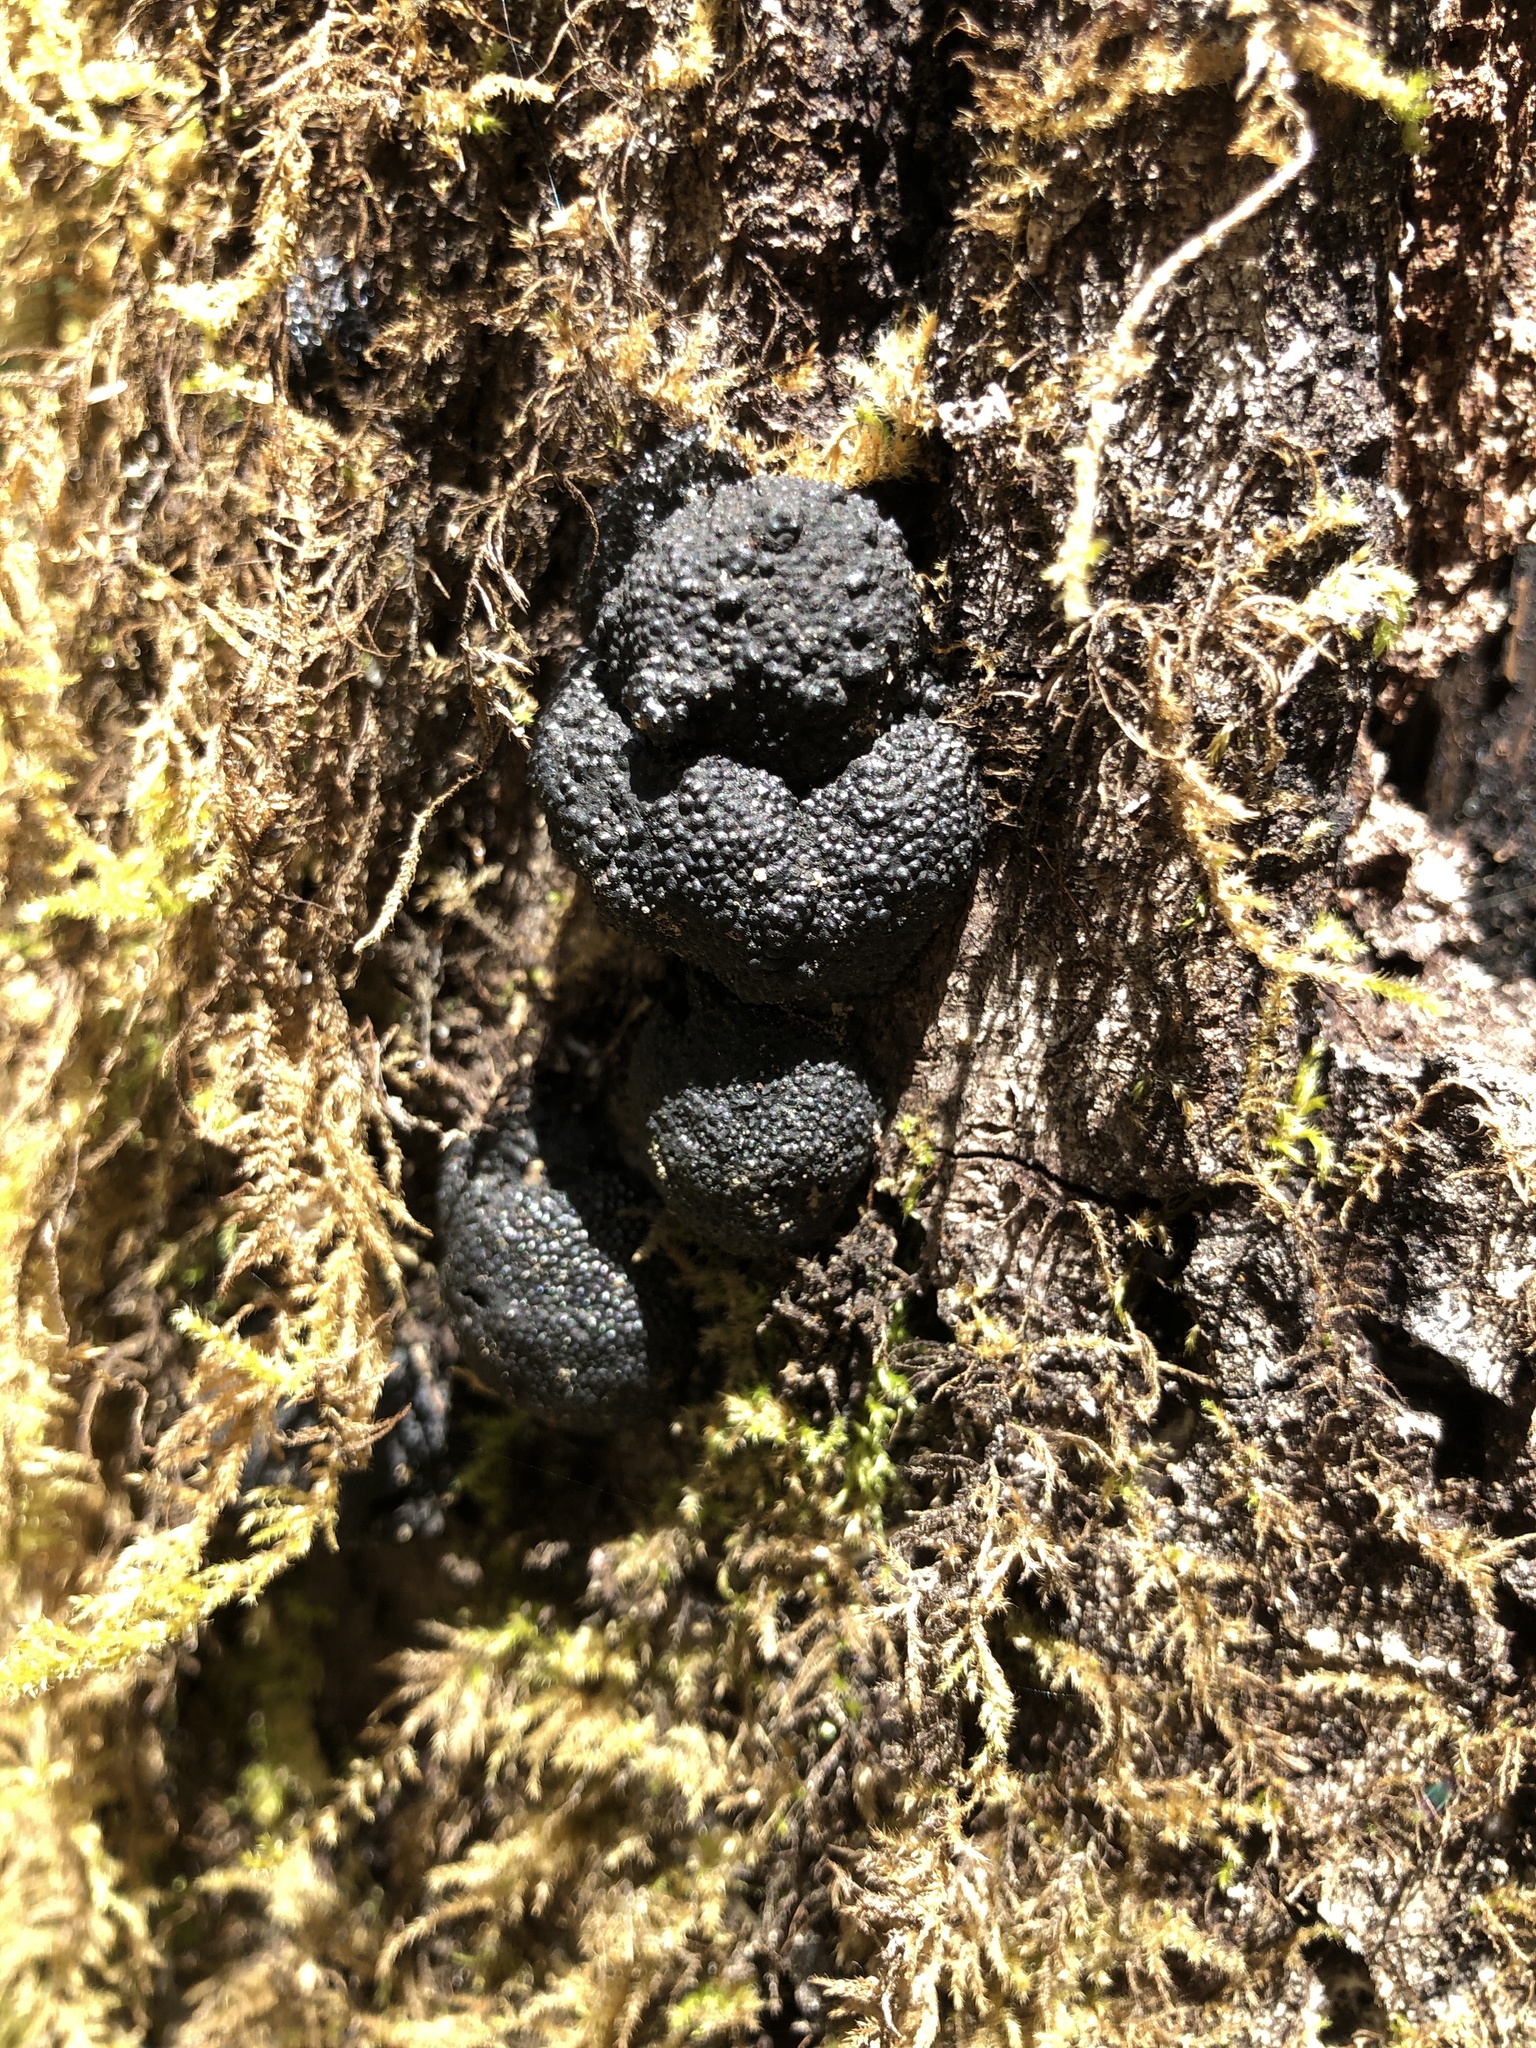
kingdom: Fungi
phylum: Ascomycota
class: Sordariomycetes
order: Xylariales
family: Hypoxylaceae
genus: Annulohypoxylon
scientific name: Annulohypoxylon thouarsianum
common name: Cramp balls
